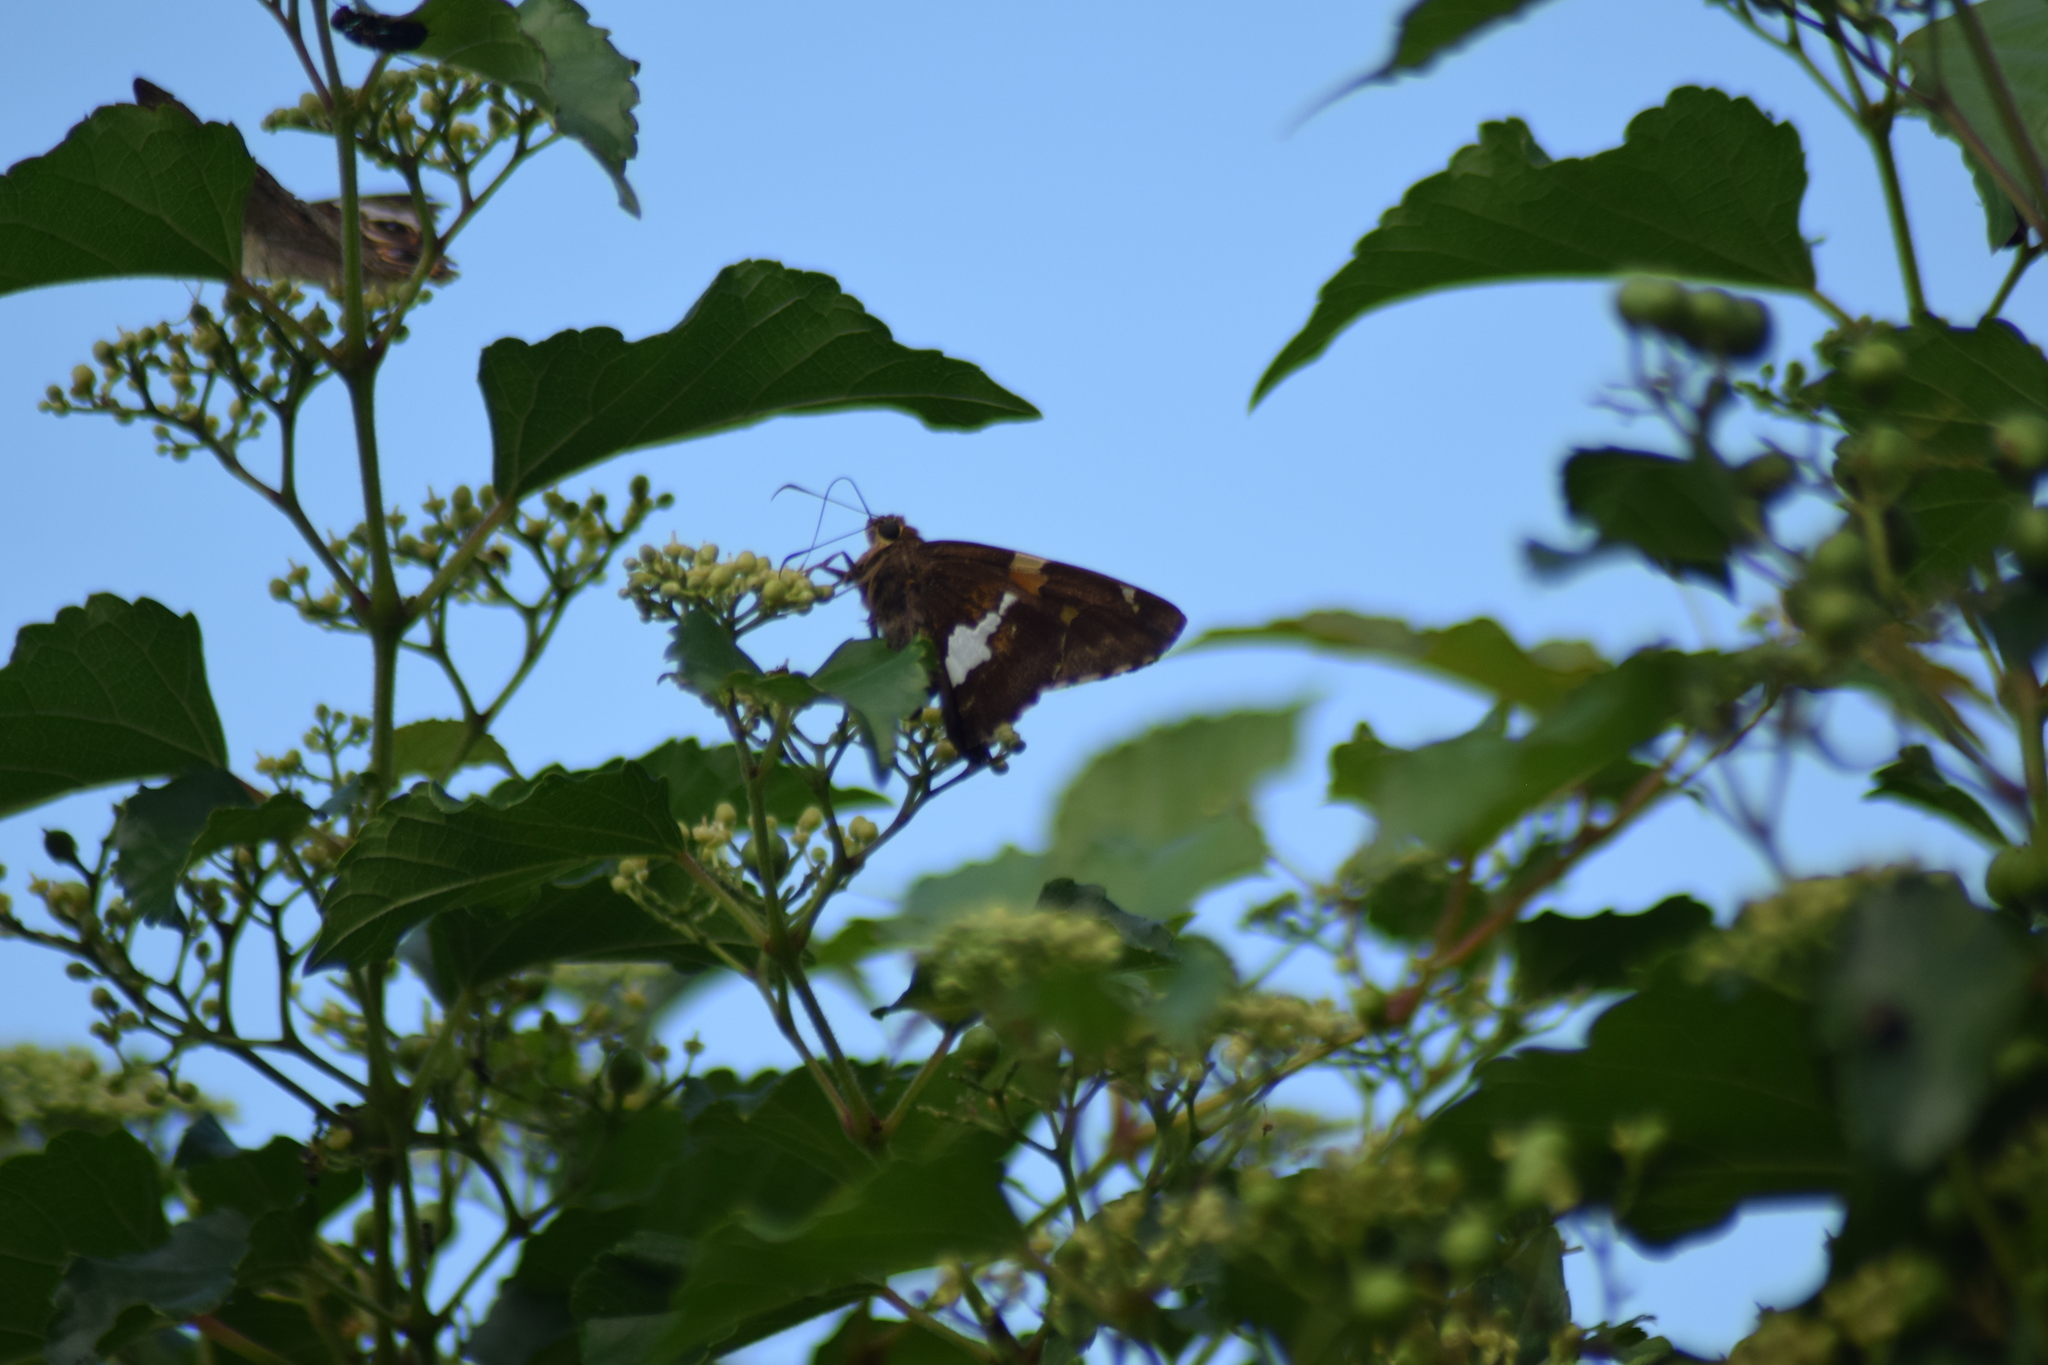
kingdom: Animalia
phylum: Arthropoda
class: Insecta
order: Lepidoptera
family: Hesperiidae
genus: Epargyreus
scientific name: Epargyreus clarus
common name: Silver-spotted skipper
